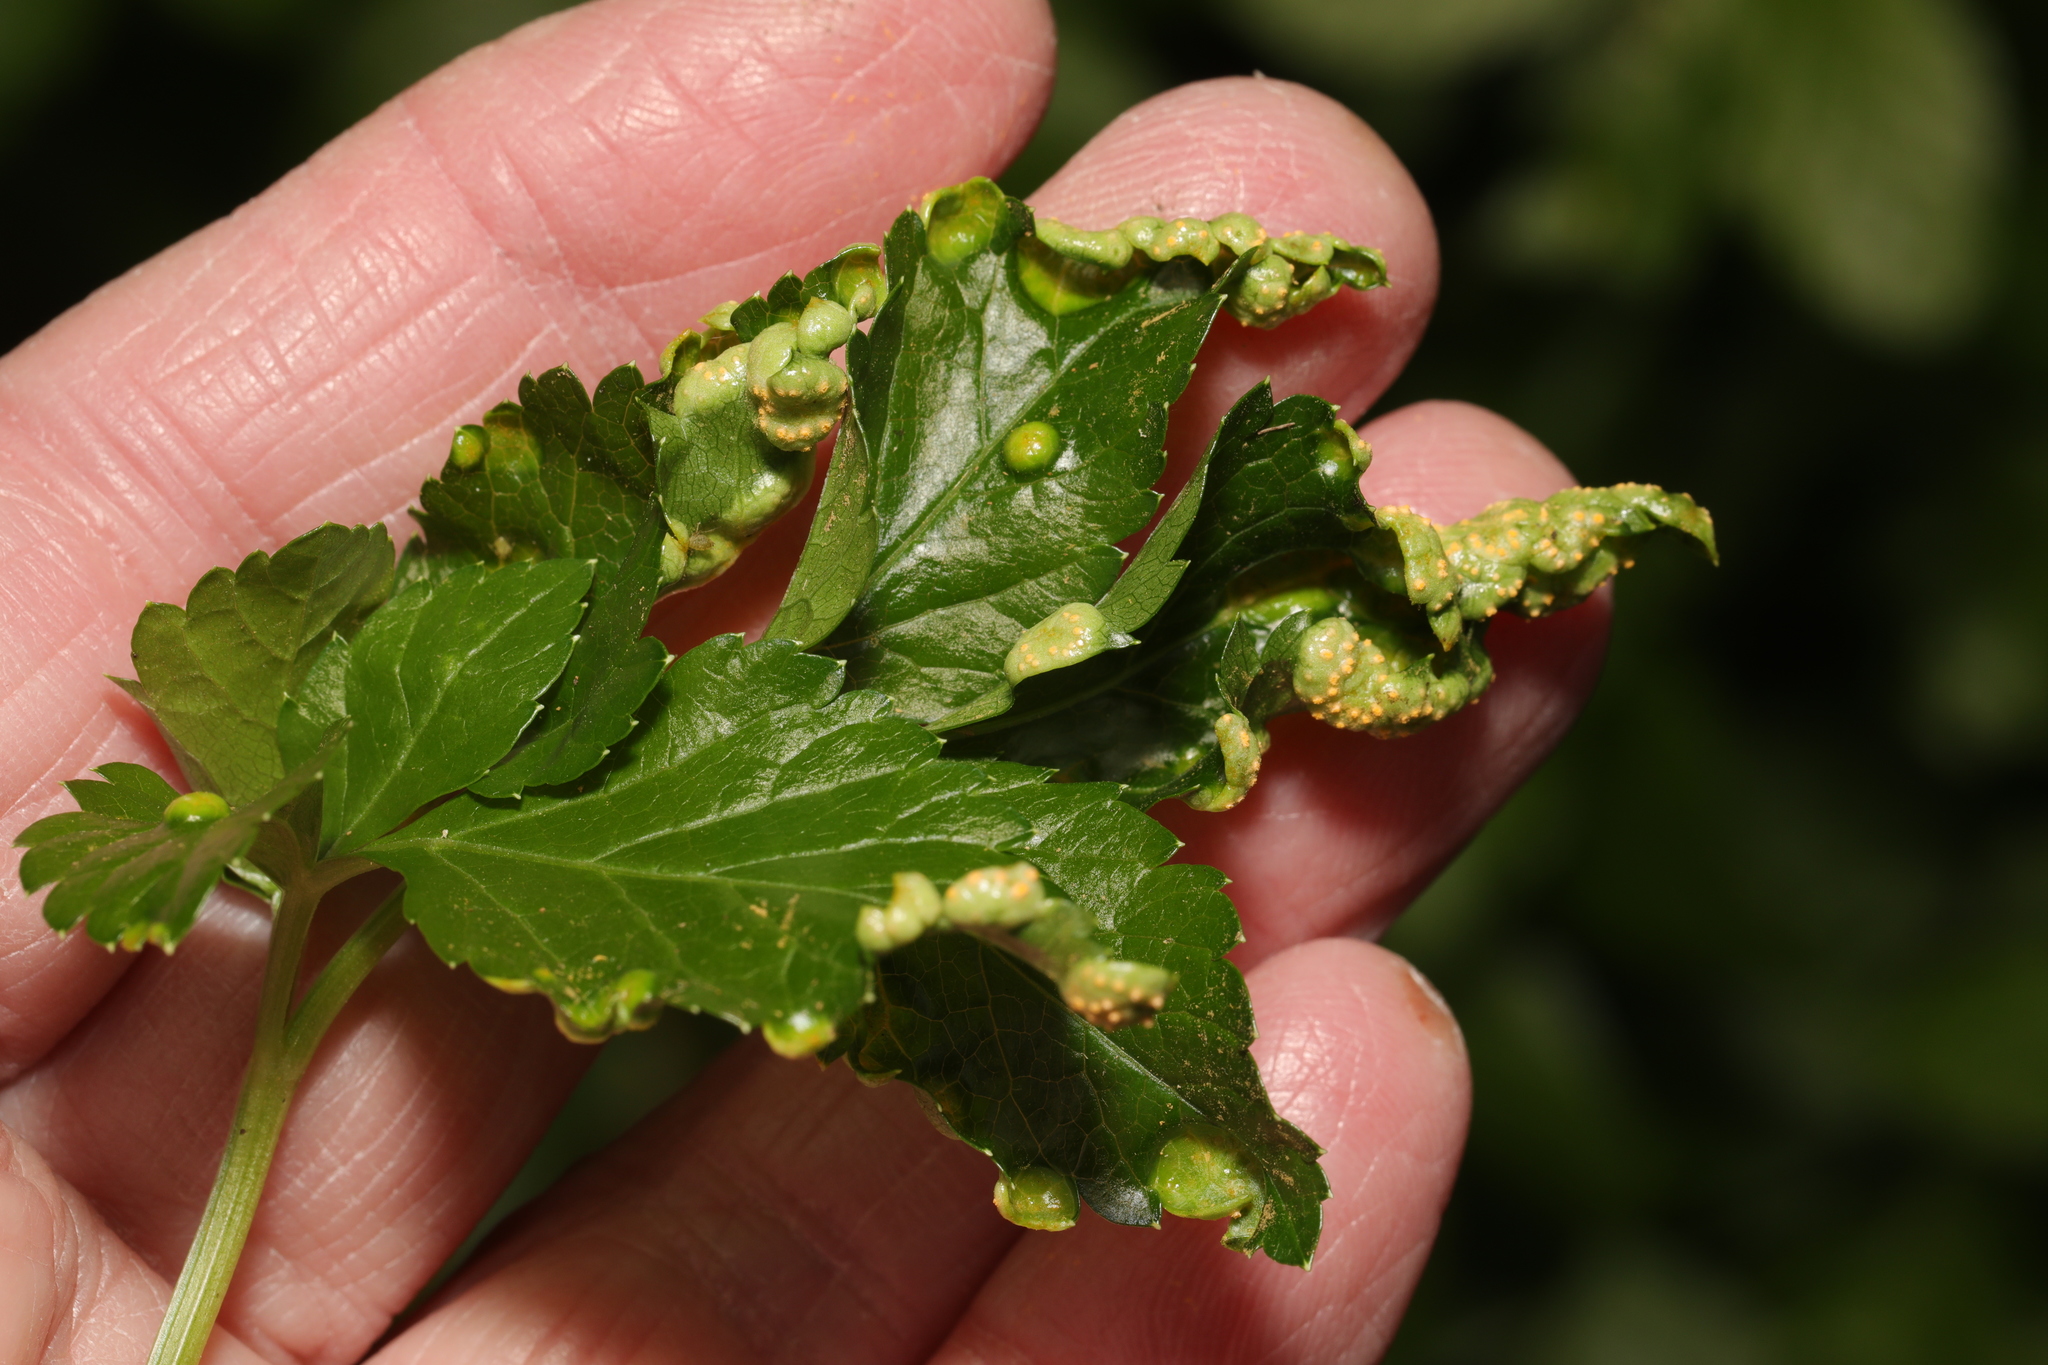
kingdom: Fungi
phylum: Basidiomycota
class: Pucciniomycetes
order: Pucciniales
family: Pucciniaceae
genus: Puccinia
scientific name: Puccinia smyrnii
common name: Alexanders rust
